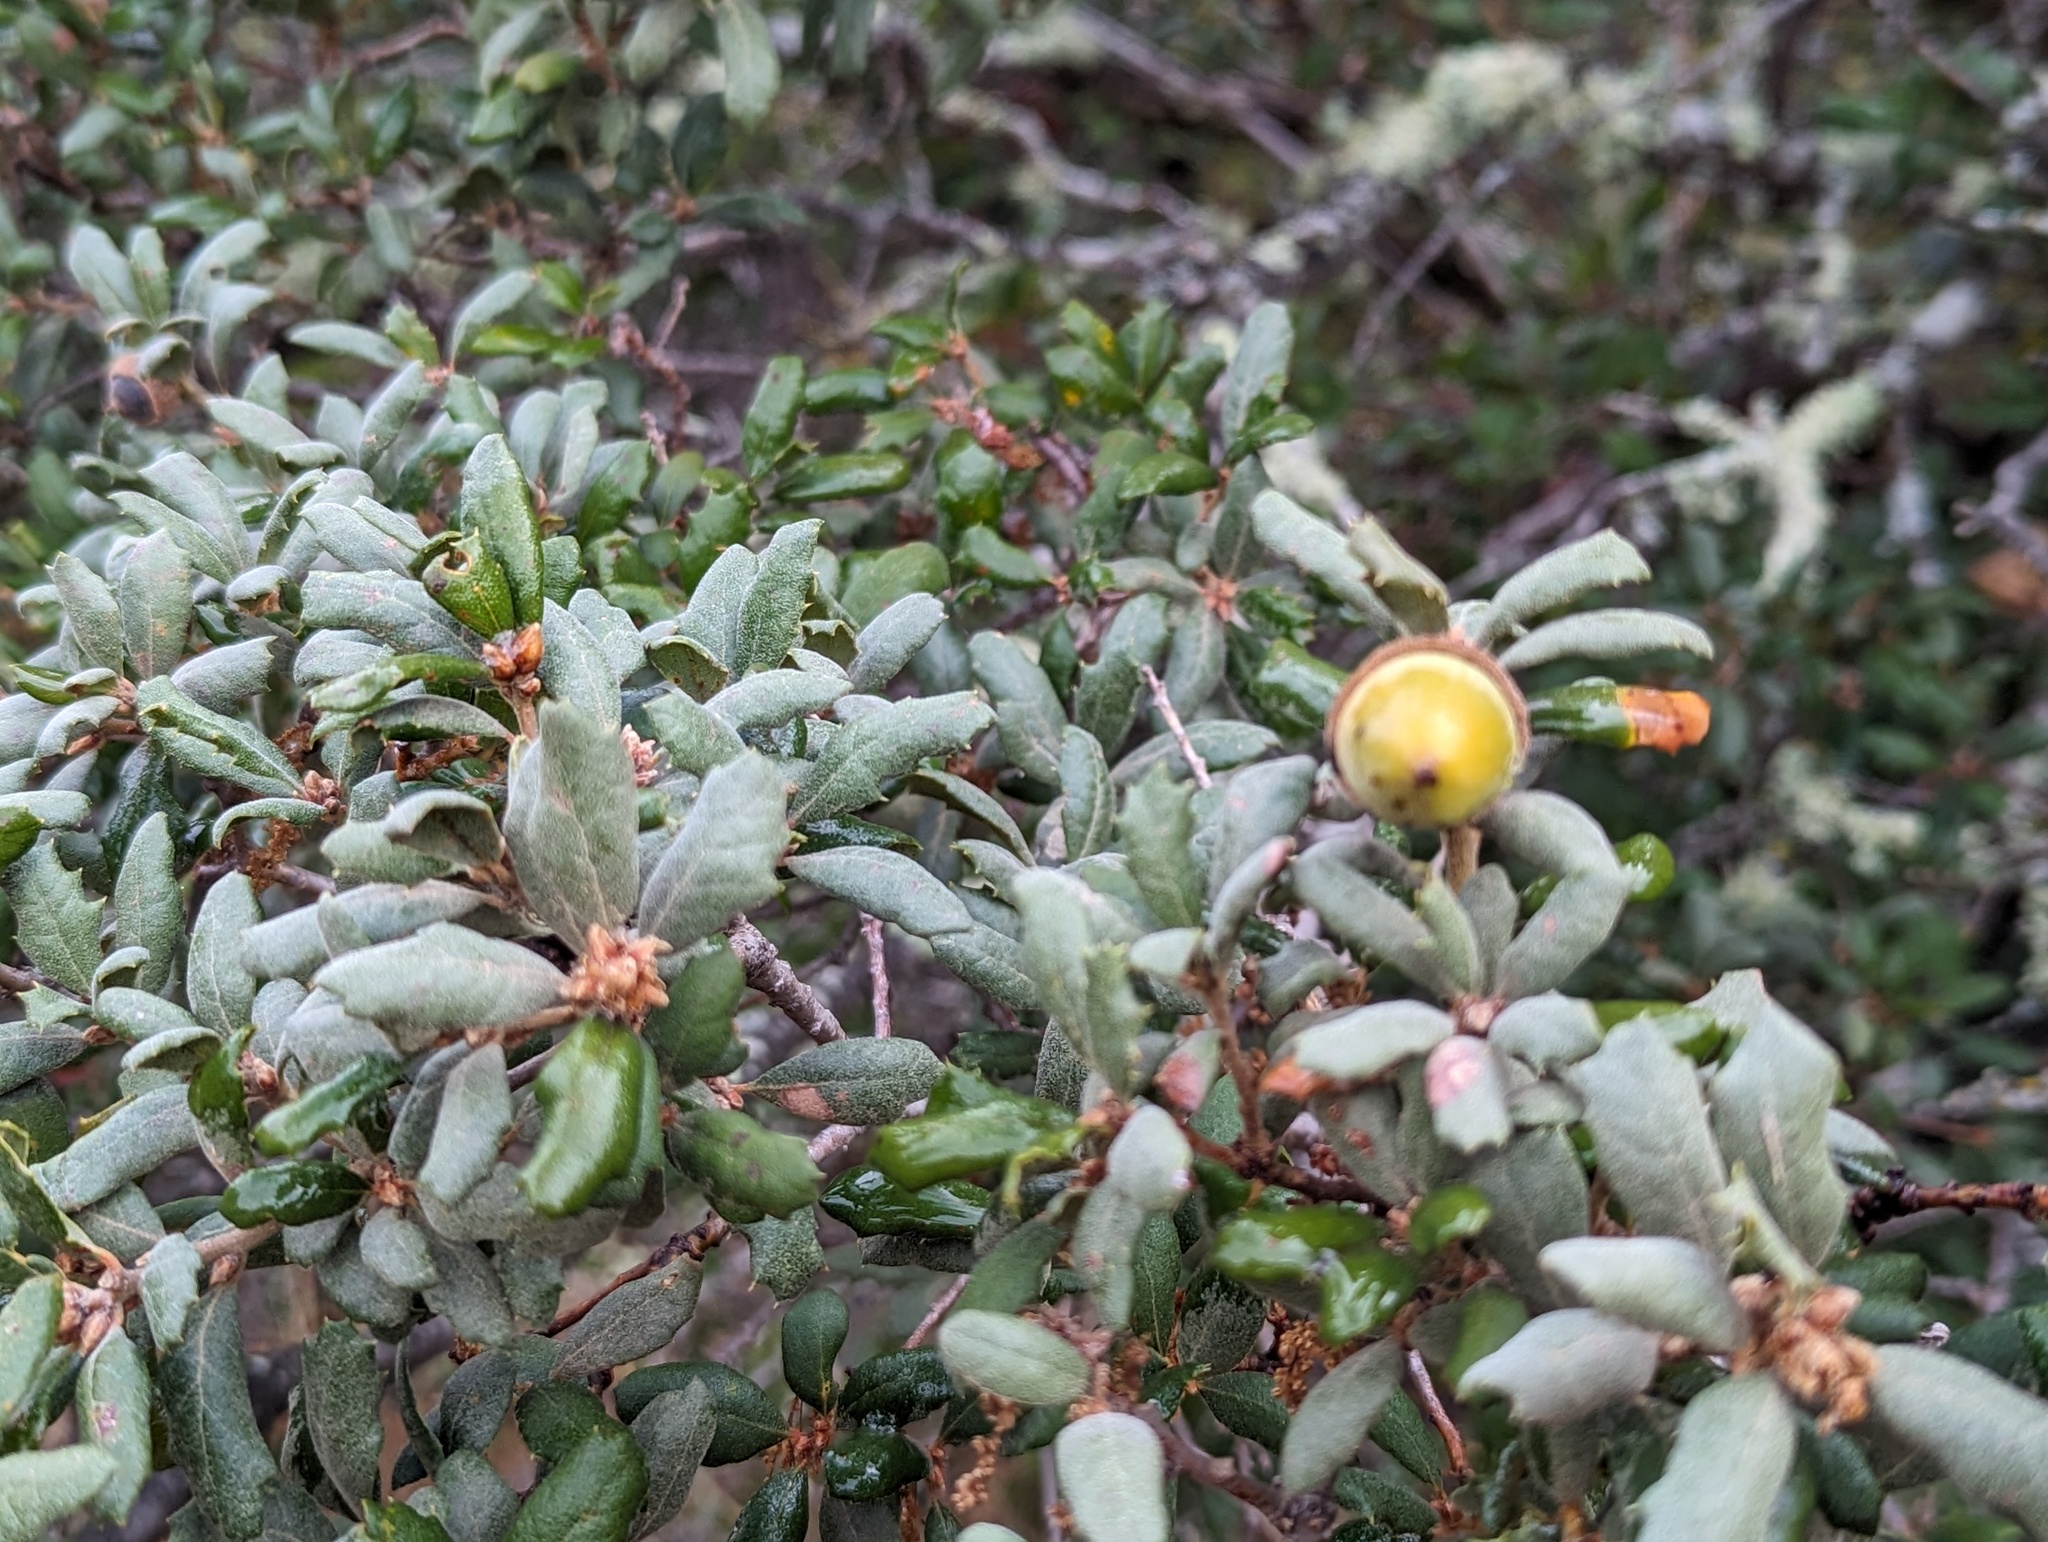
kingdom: Plantae
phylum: Tracheophyta
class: Magnoliopsida
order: Fagales
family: Fagaceae
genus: Quercus
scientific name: Quercus durata
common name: Leather oak
